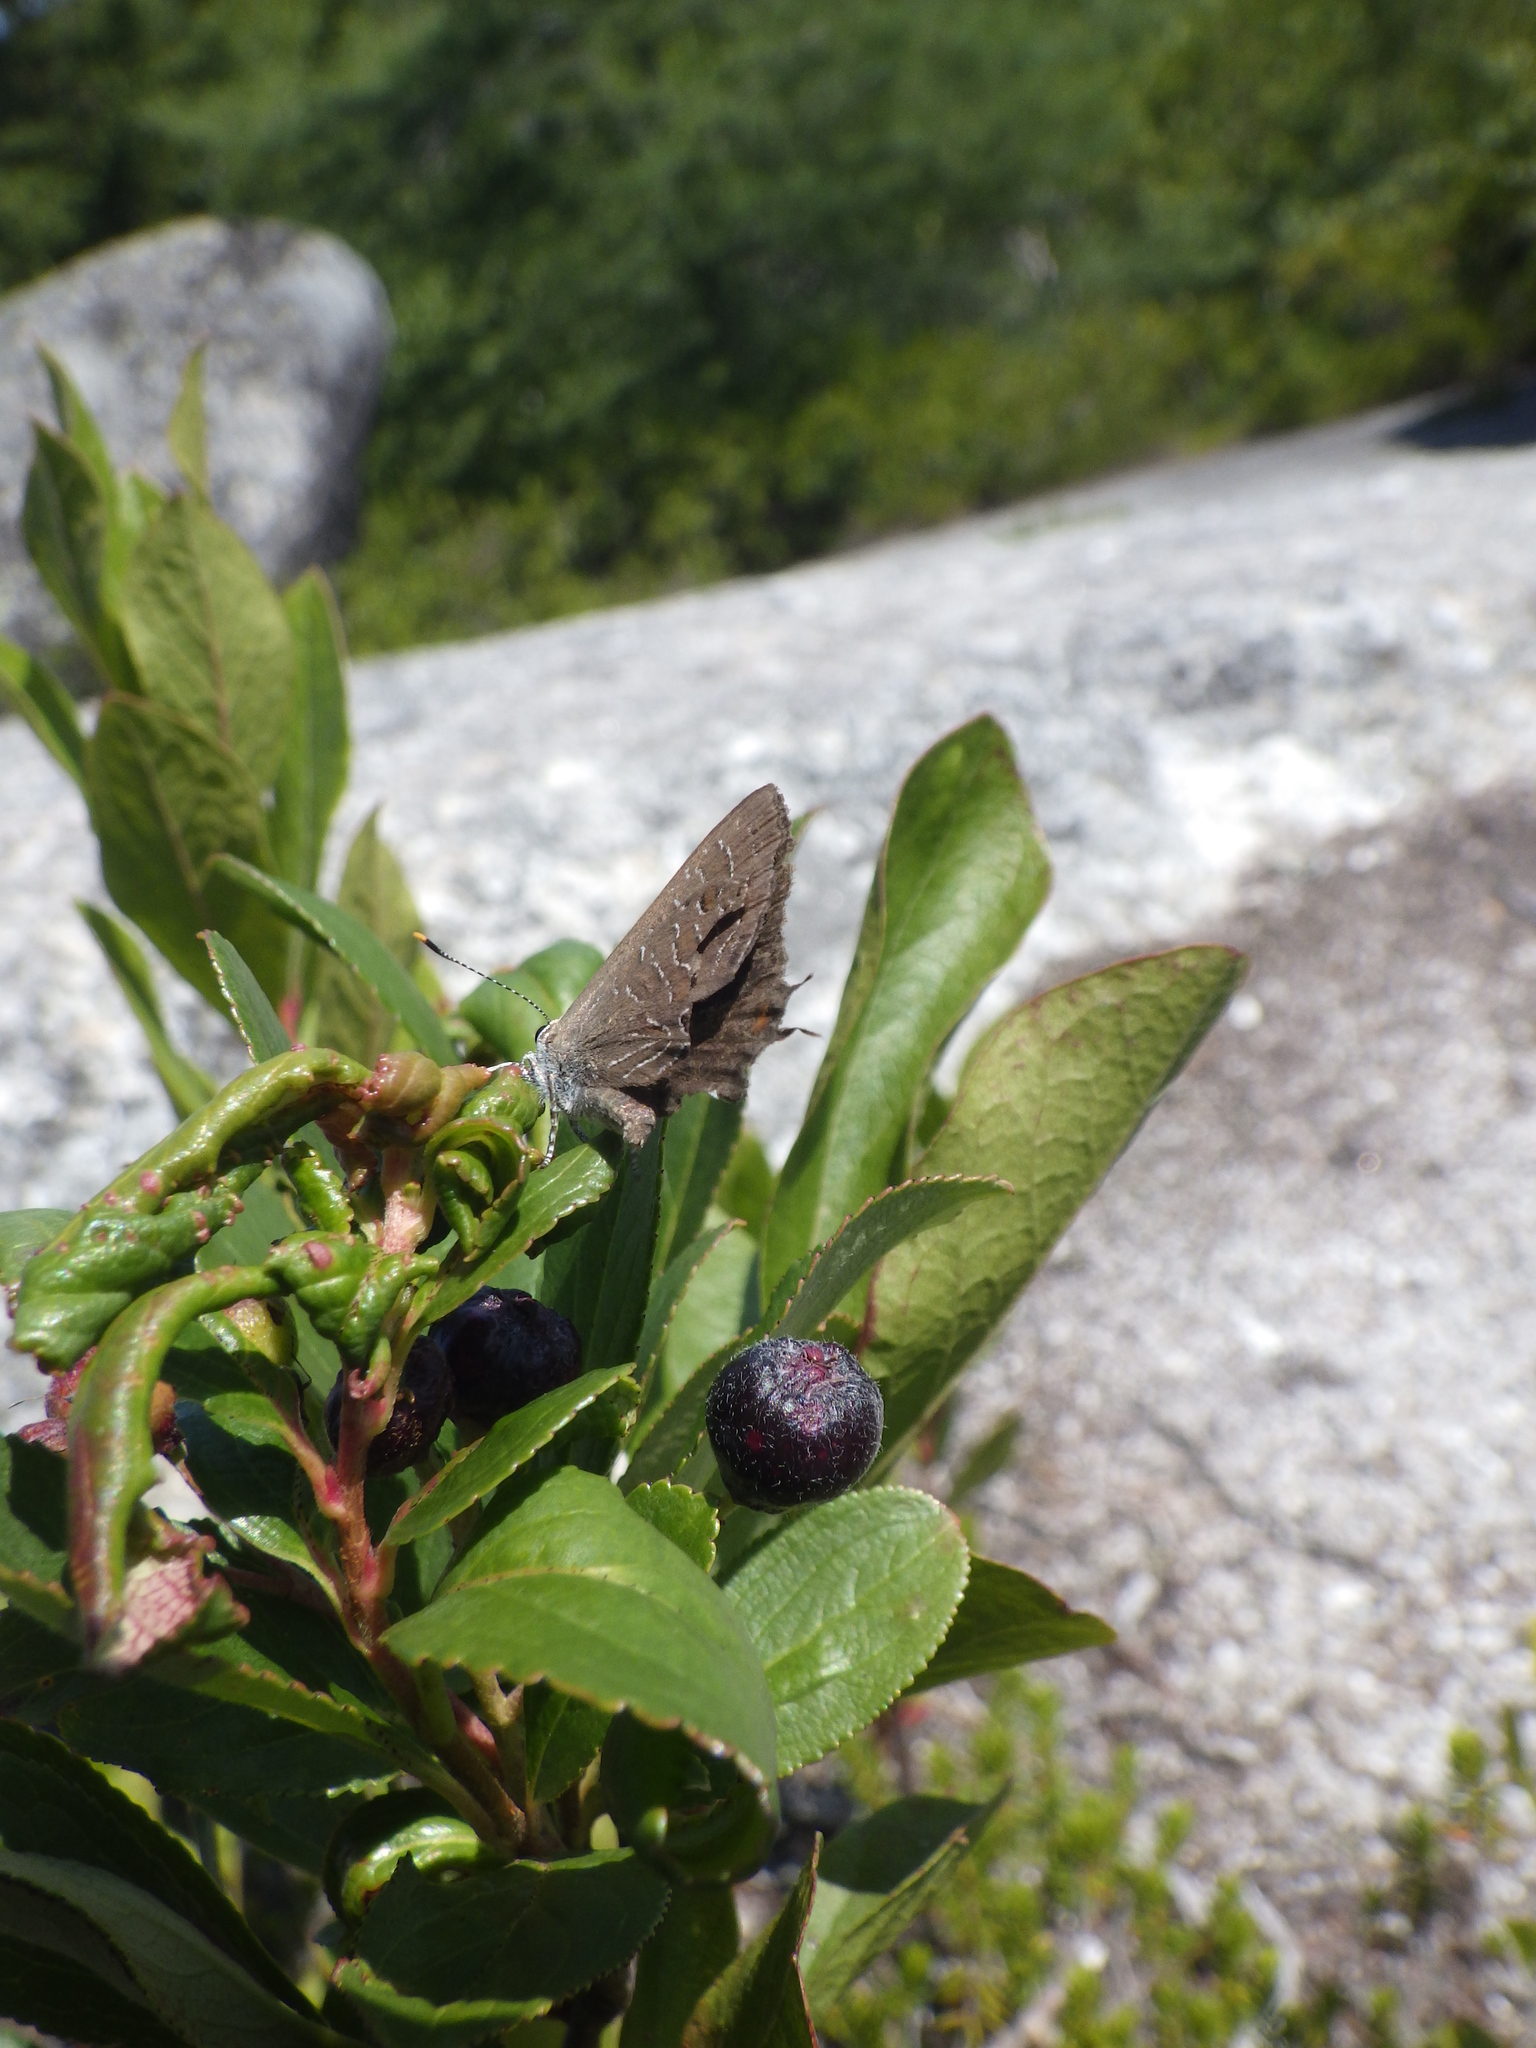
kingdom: Animalia
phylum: Arthropoda
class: Insecta
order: Lepidoptera
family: Lycaenidae
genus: Satyrium
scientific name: Satyrium liparops
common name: Striped hairstreak
